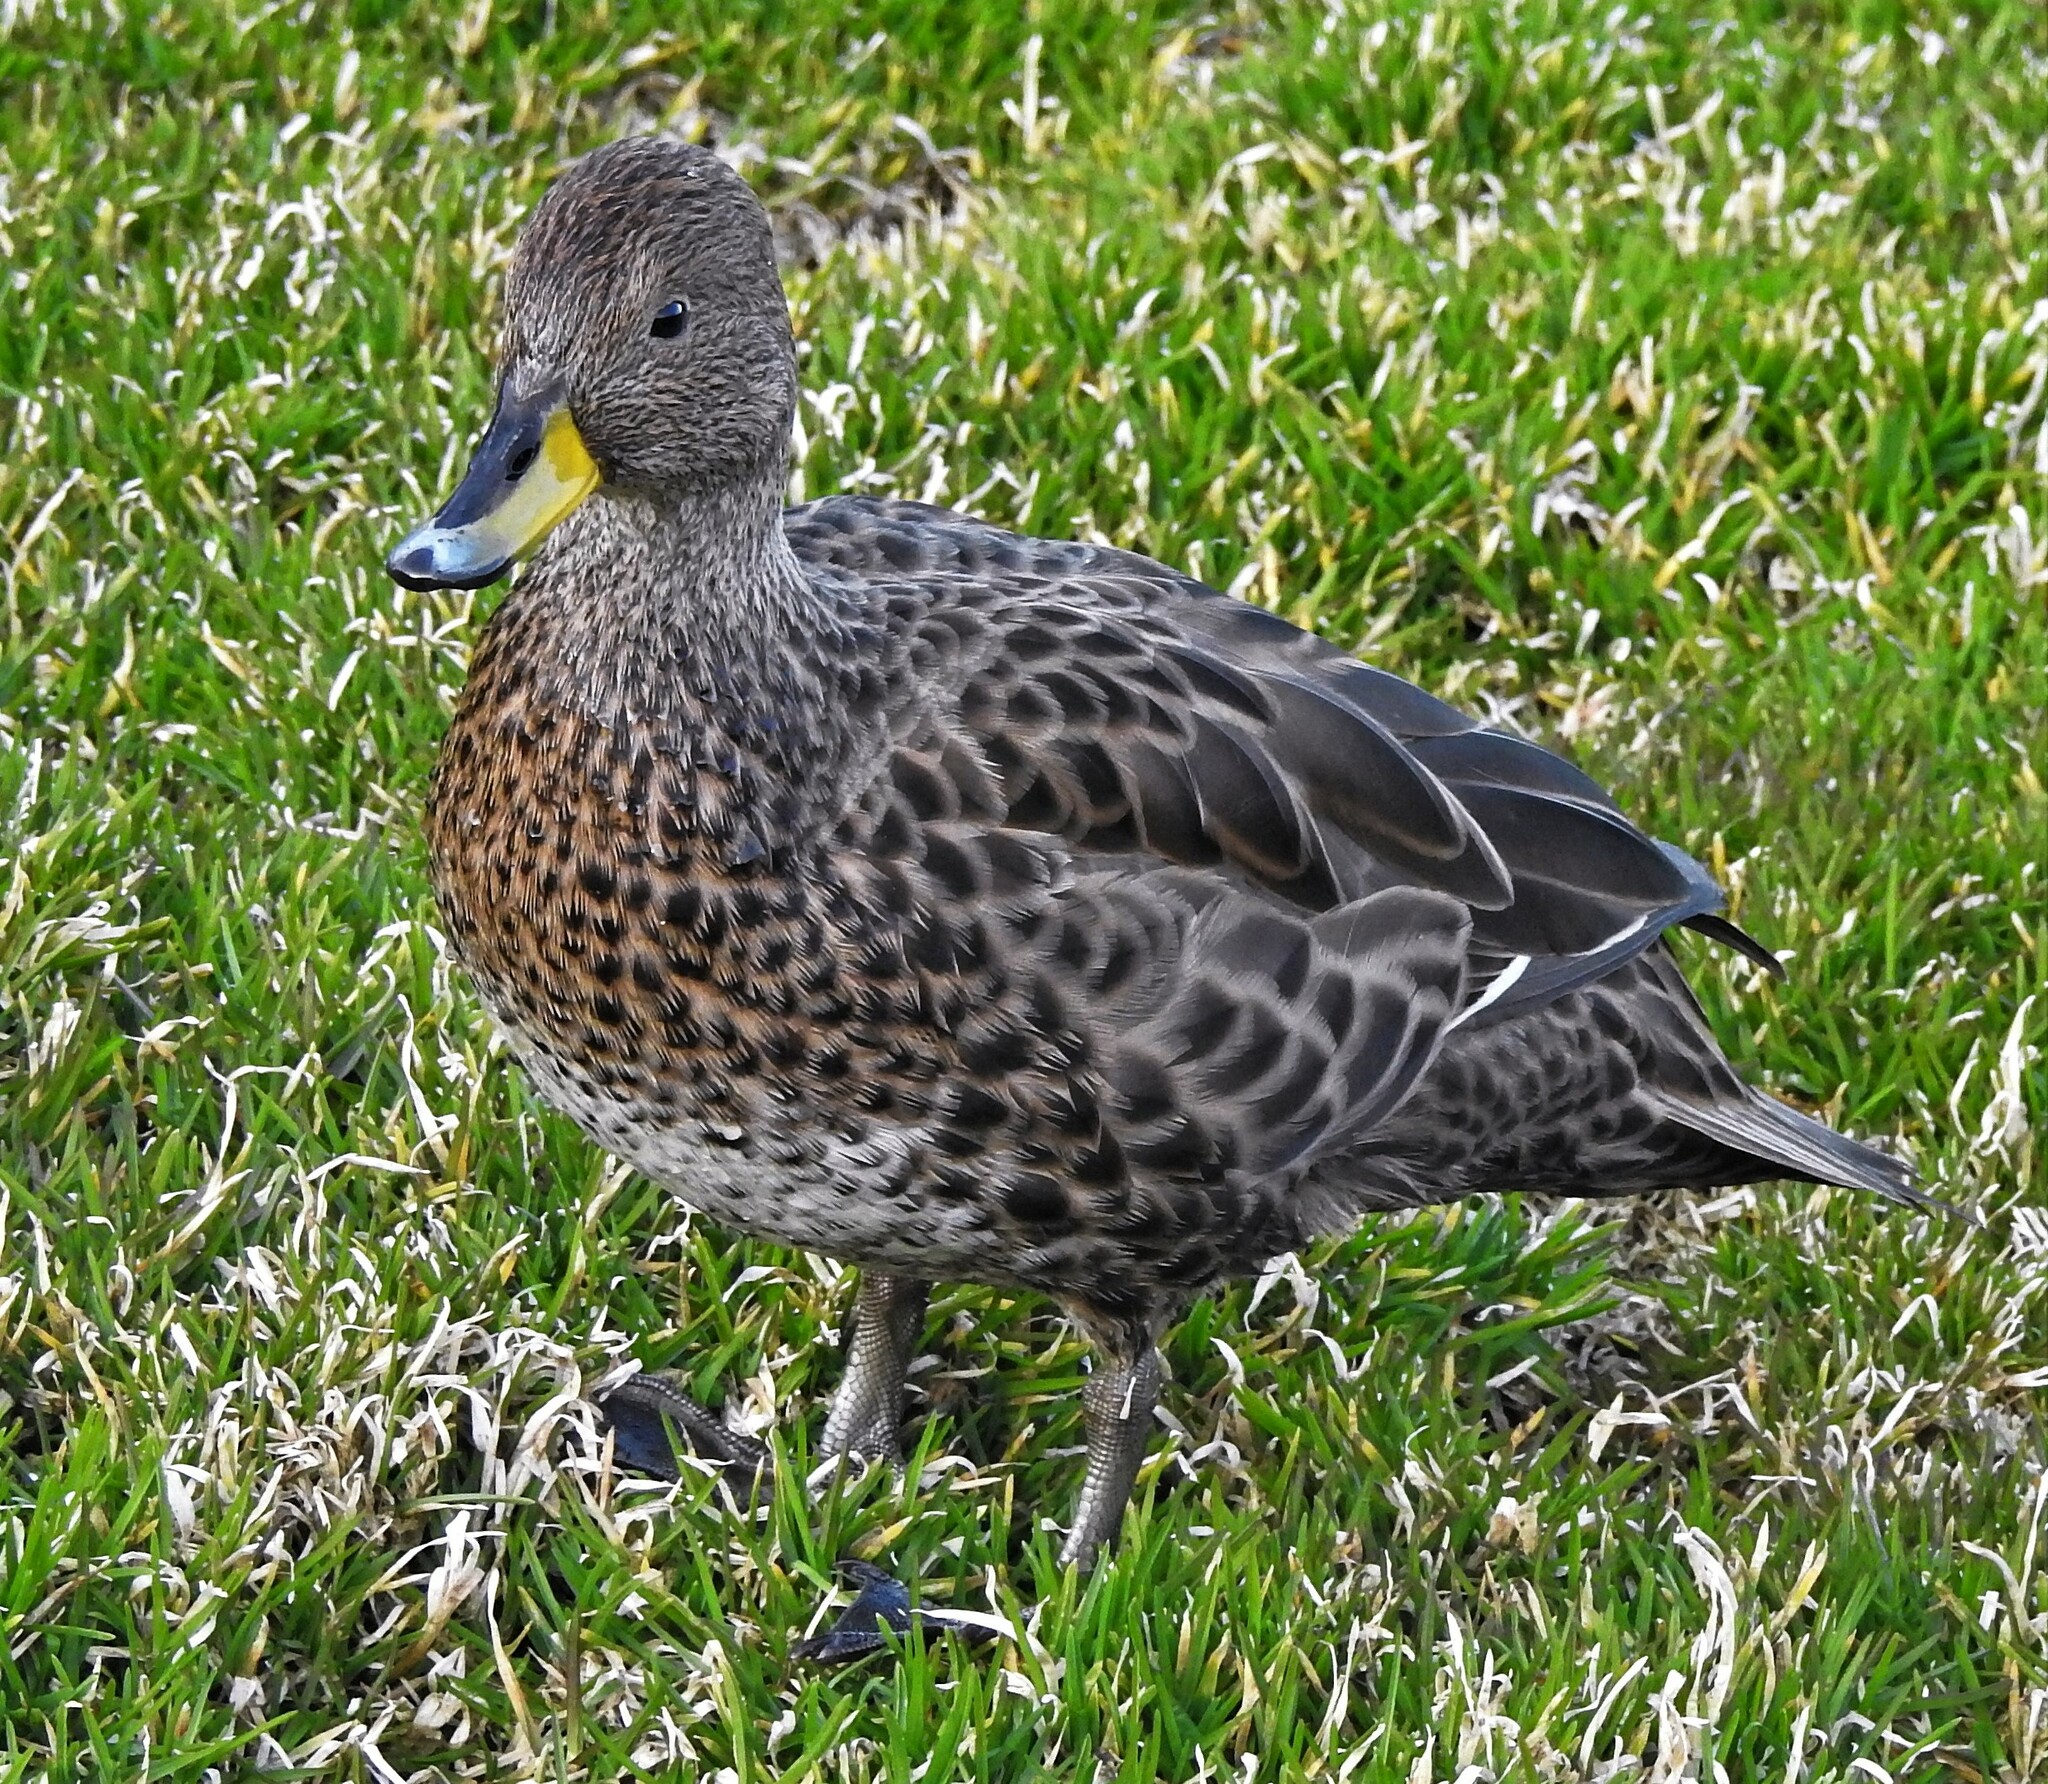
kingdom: Animalia
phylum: Chordata
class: Aves
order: Anseriformes
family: Anatidae
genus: Anas
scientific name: Anas georgica
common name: Yellow-billed pintail
